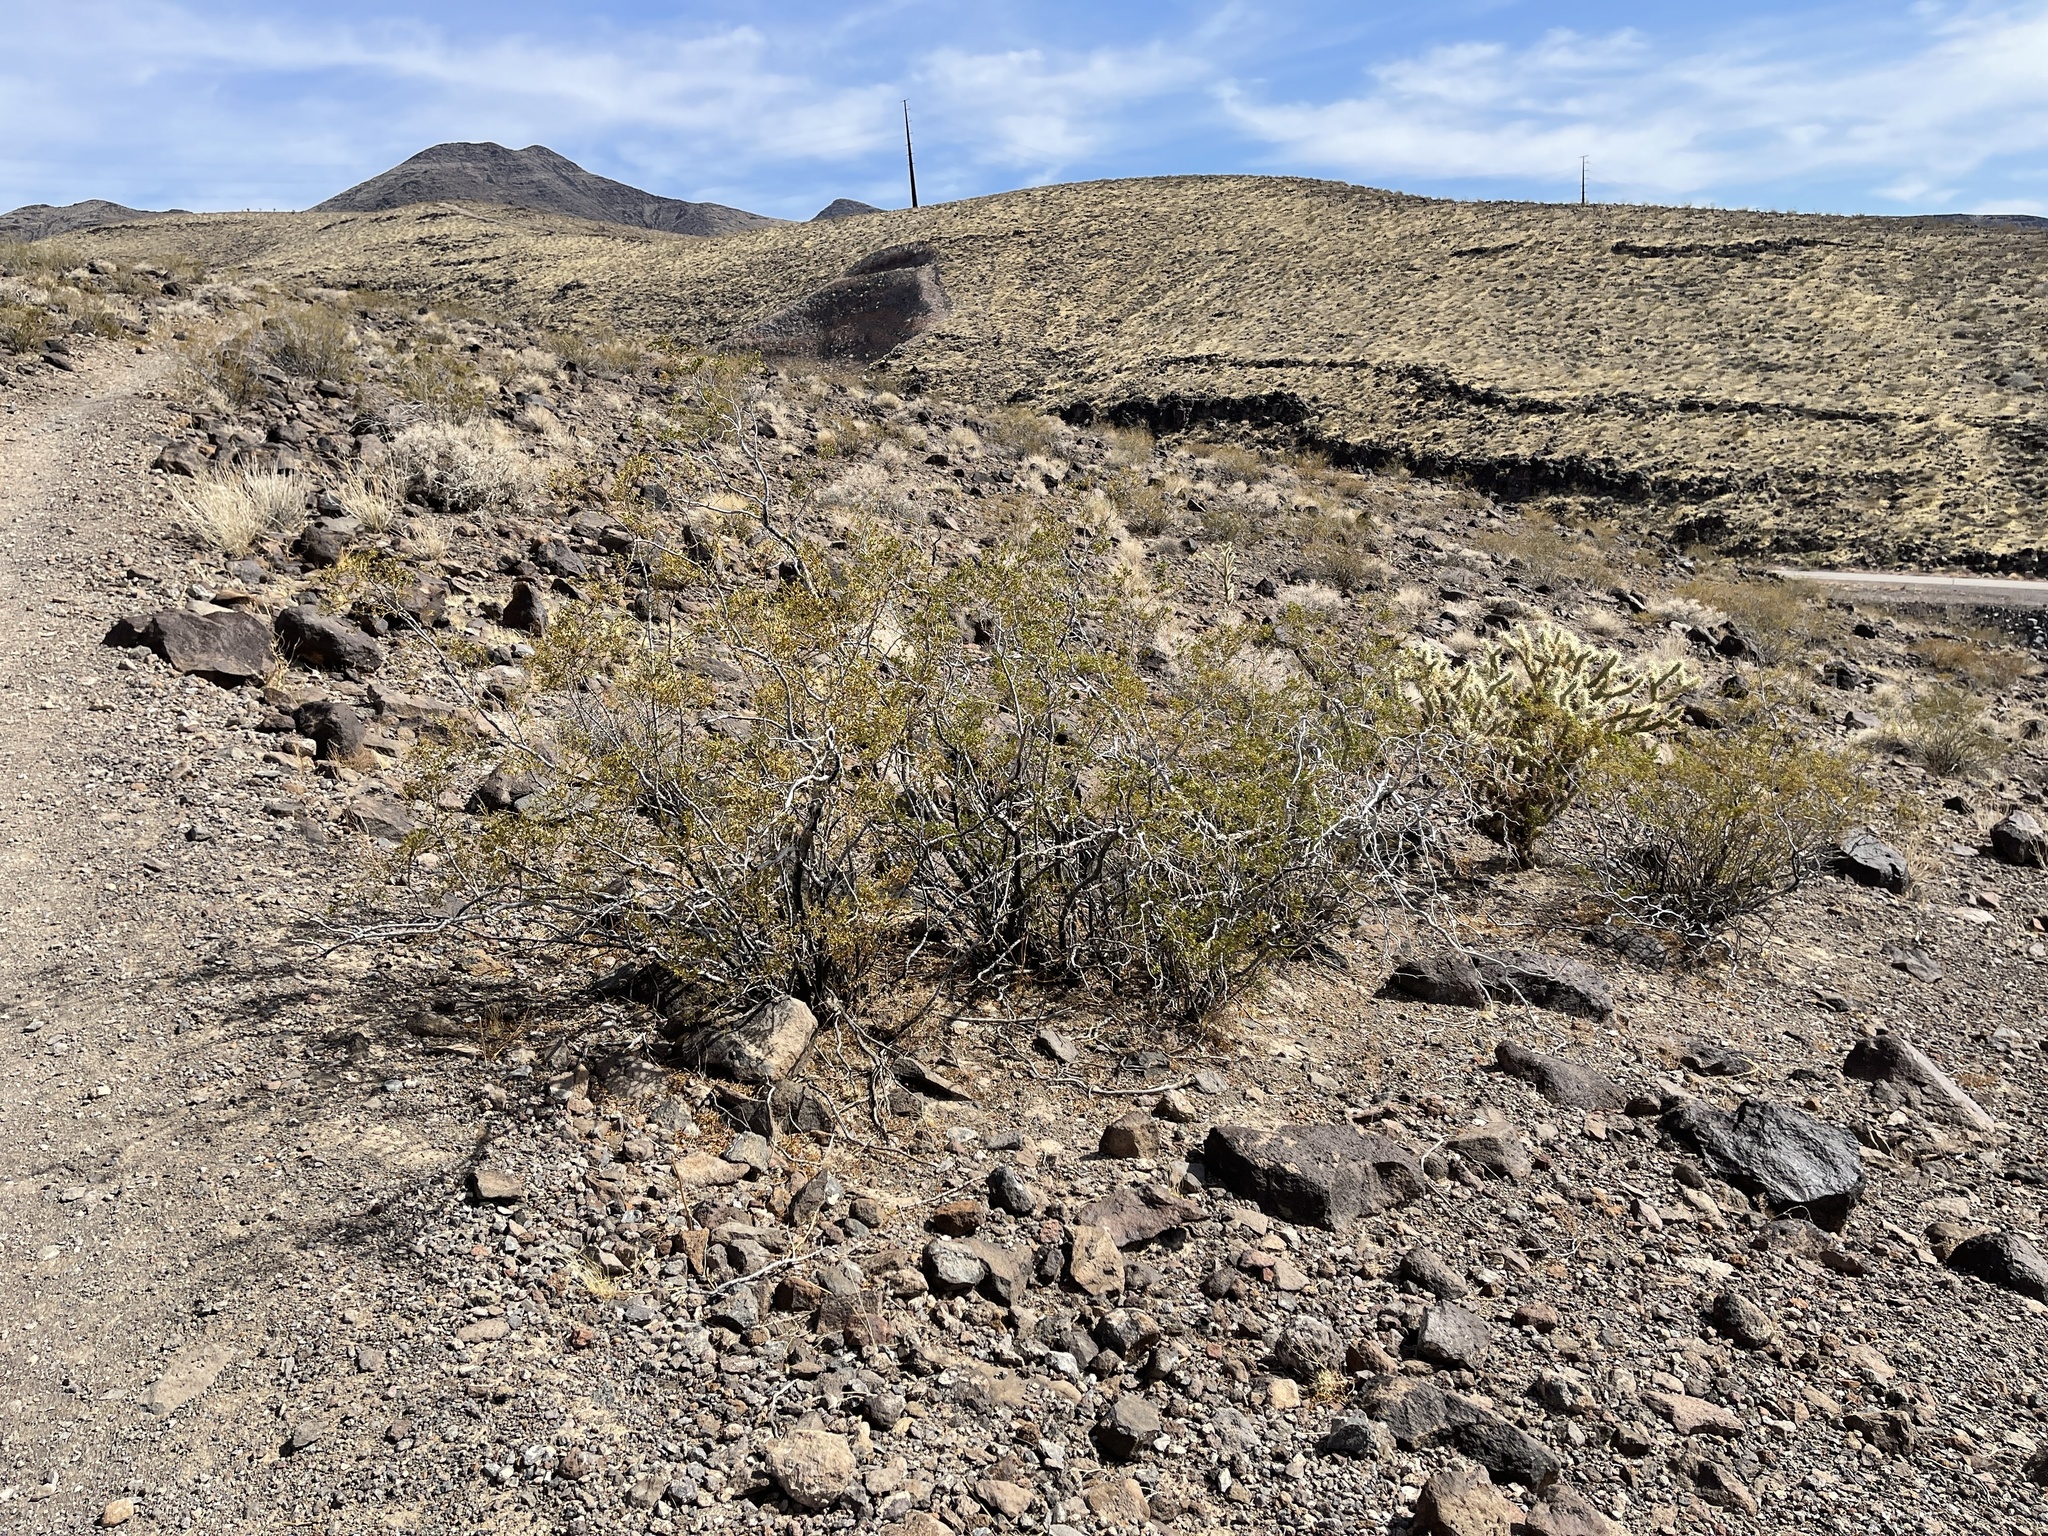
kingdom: Plantae
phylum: Tracheophyta
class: Magnoliopsida
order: Zygophyllales
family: Zygophyllaceae
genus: Larrea
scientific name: Larrea tridentata
